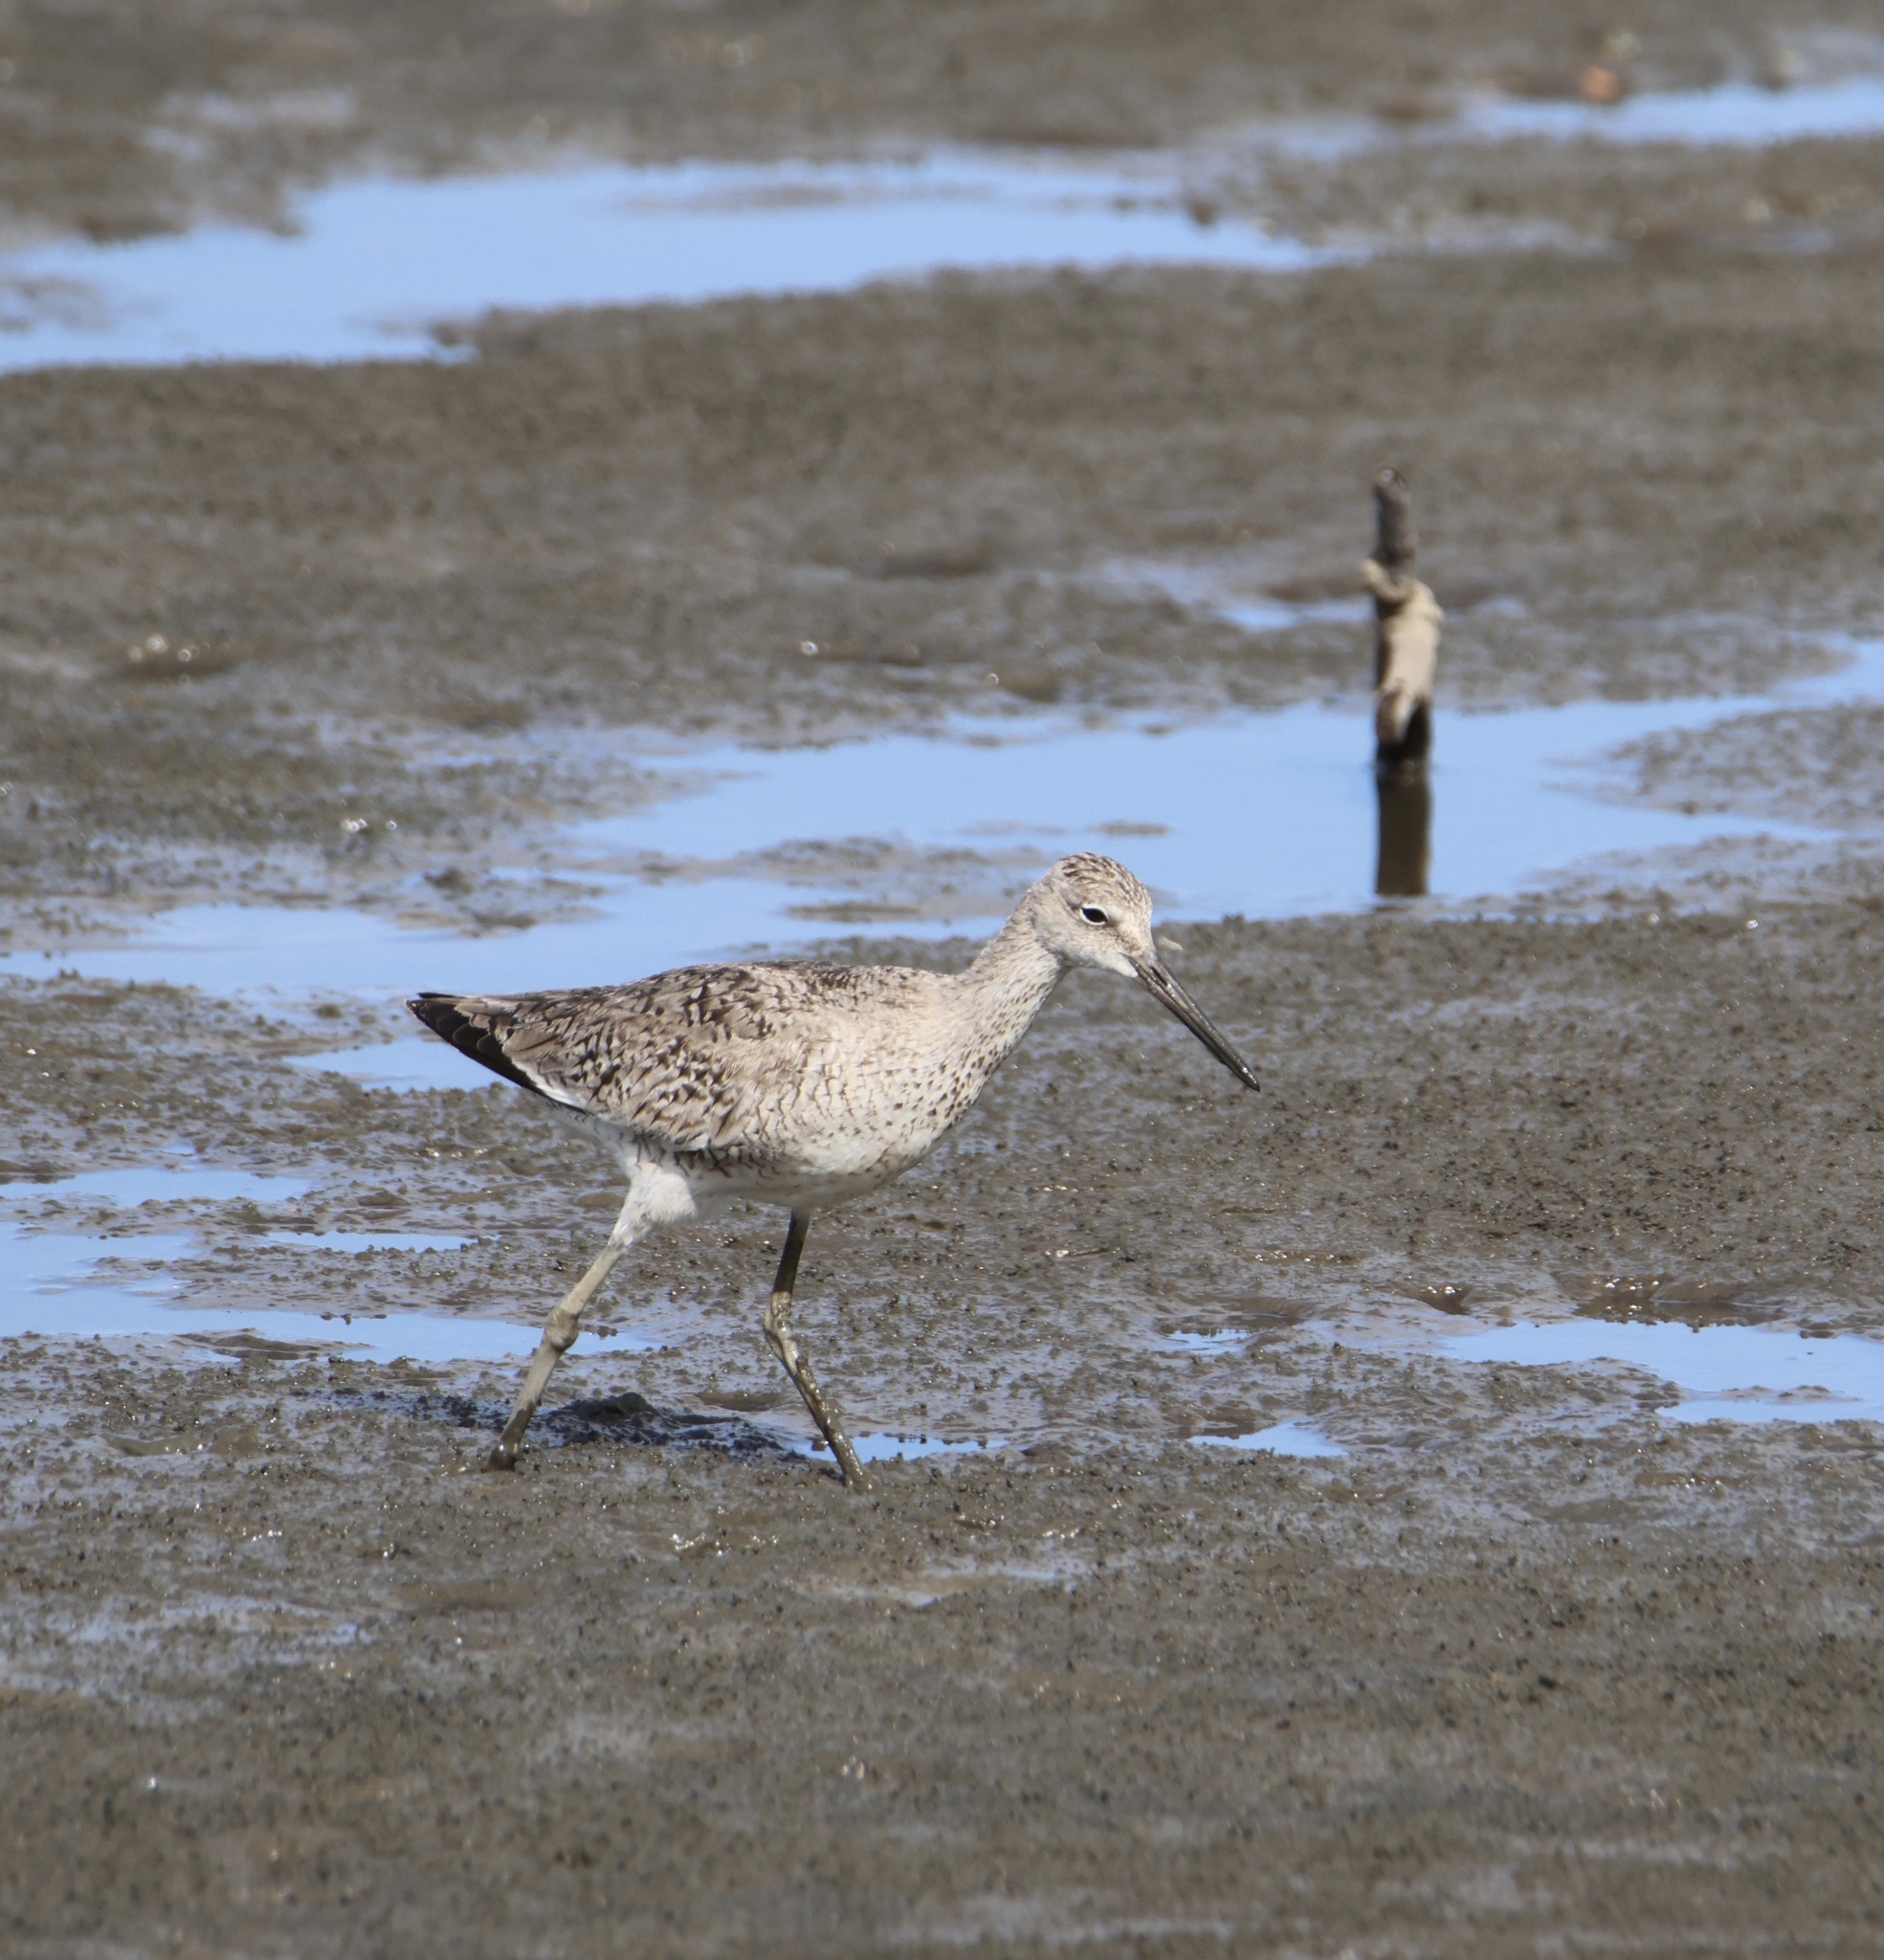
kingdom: Animalia
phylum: Chordata
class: Aves
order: Charadriiformes
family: Scolopacidae
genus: Tringa
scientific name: Tringa semipalmata
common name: Willet
